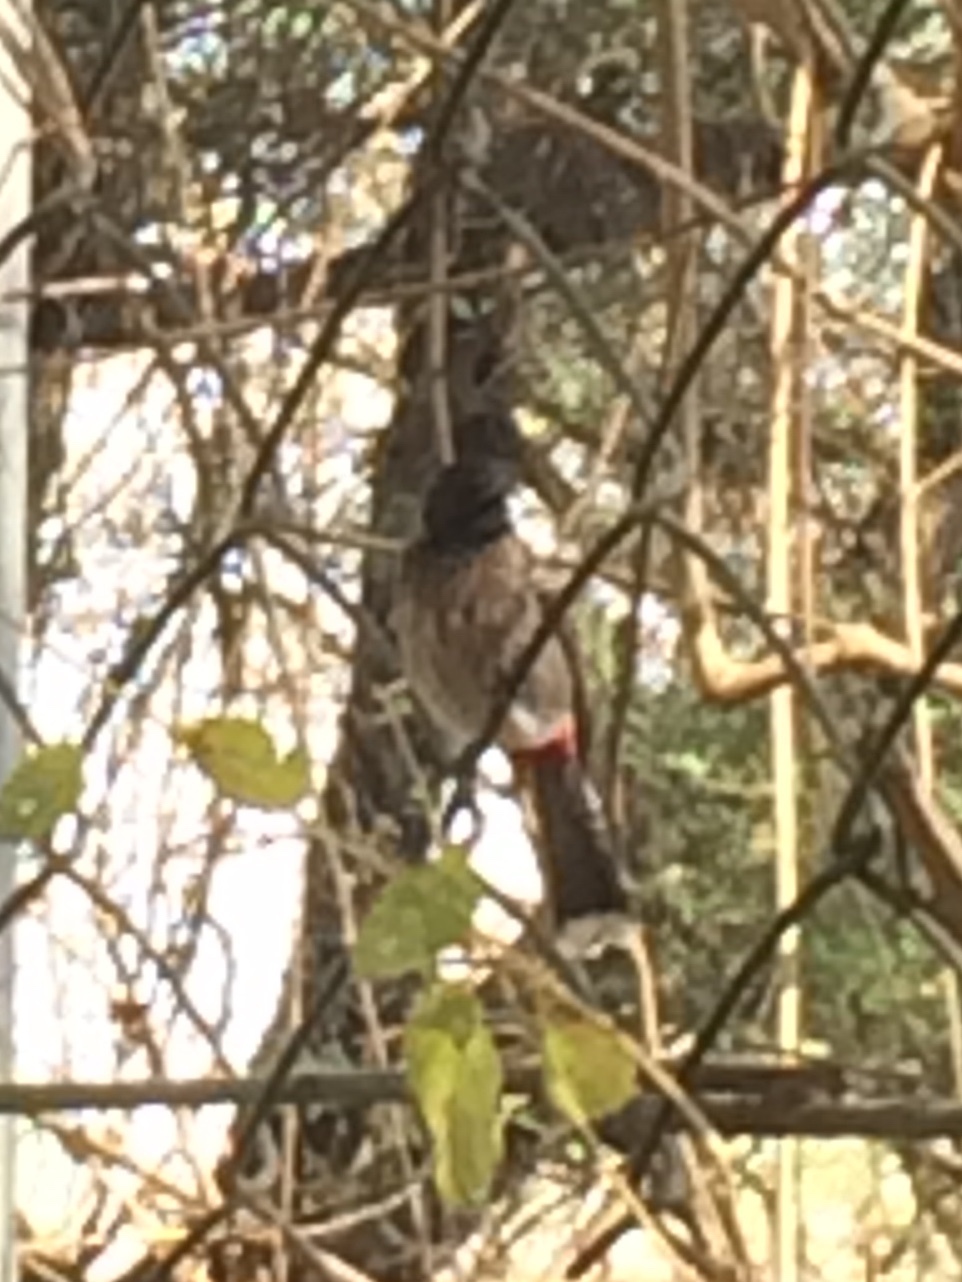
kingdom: Animalia
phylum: Chordata
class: Aves
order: Passeriformes
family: Pycnonotidae
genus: Pycnonotus
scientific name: Pycnonotus cafer
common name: Red-vented bulbul
